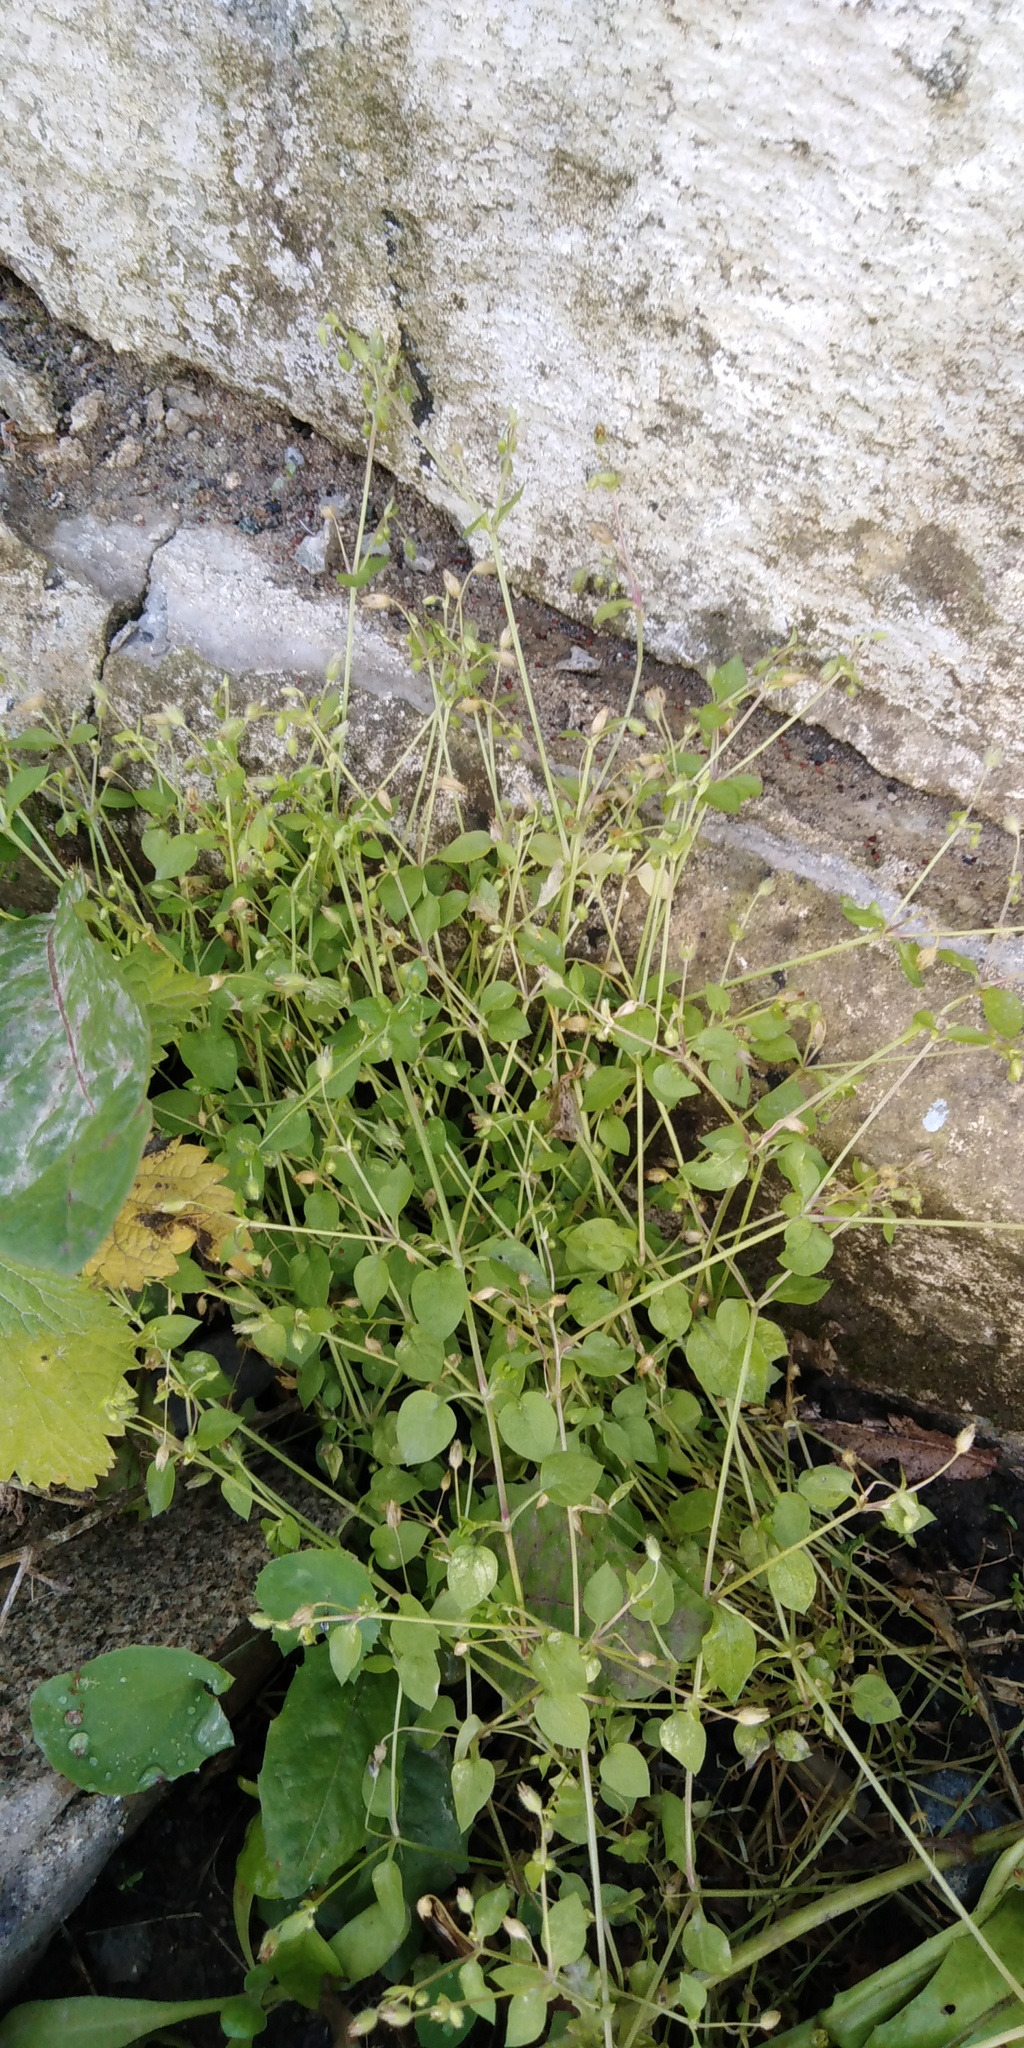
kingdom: Plantae
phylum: Tracheophyta
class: Magnoliopsida
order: Caryophyllales
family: Caryophyllaceae
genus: Stellaria
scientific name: Stellaria media
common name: Common chickweed
